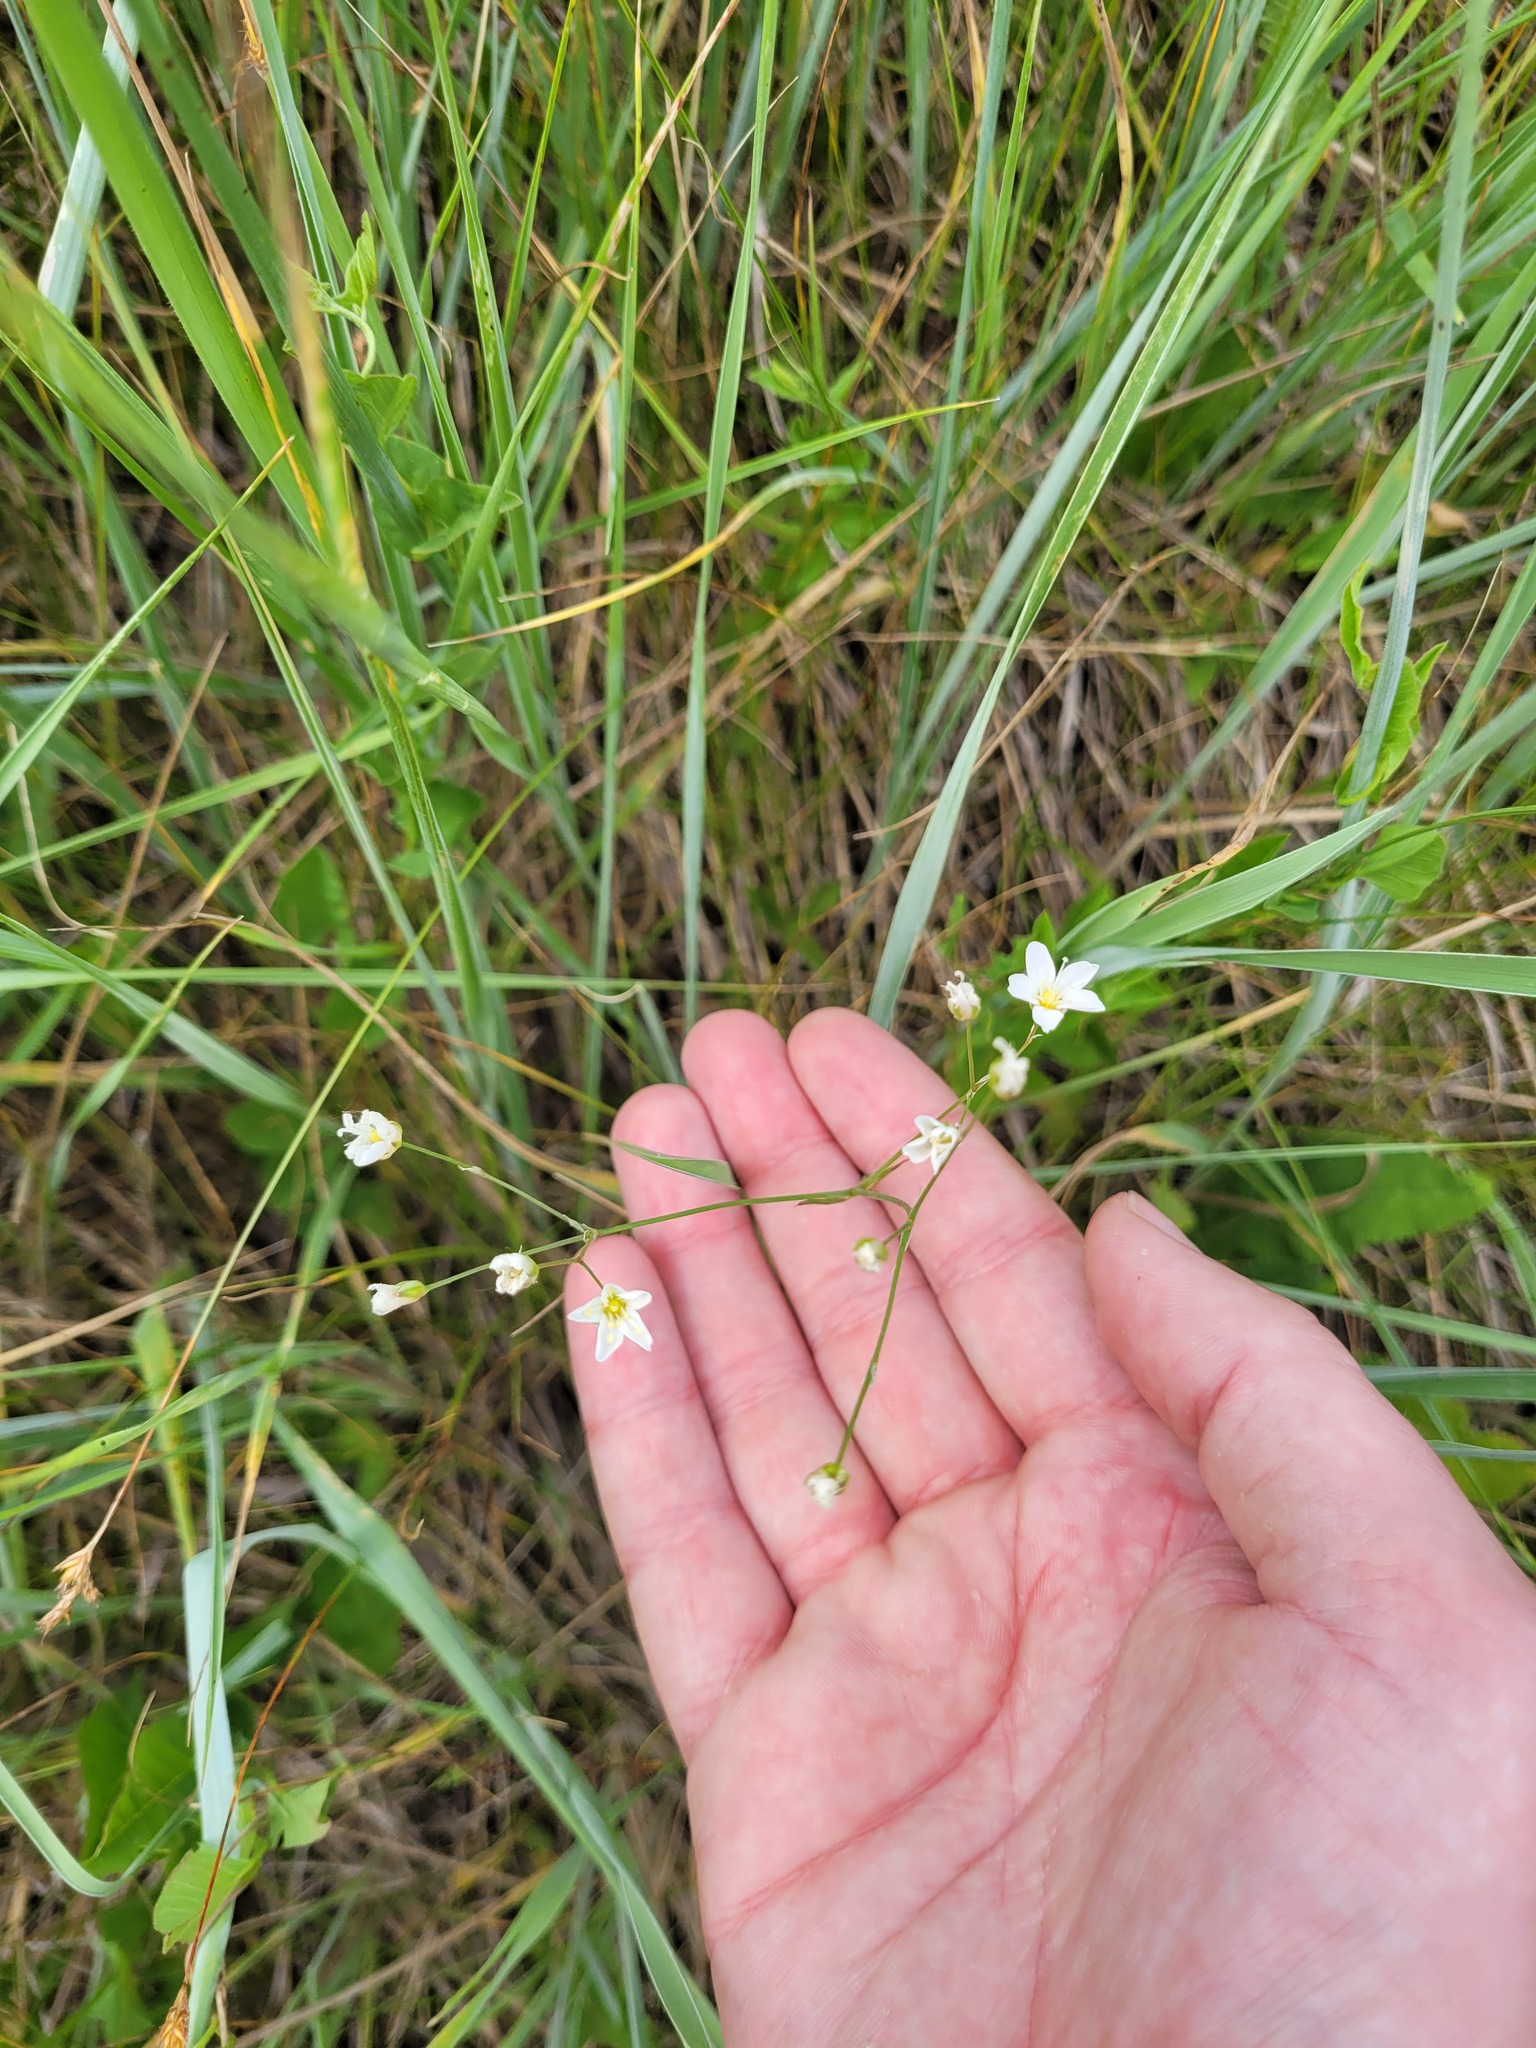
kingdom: Plantae
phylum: Tracheophyta
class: Magnoliopsida
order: Caryophyllales
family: Caryophyllaceae
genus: Eremogone
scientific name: Eremogone saxatilis
